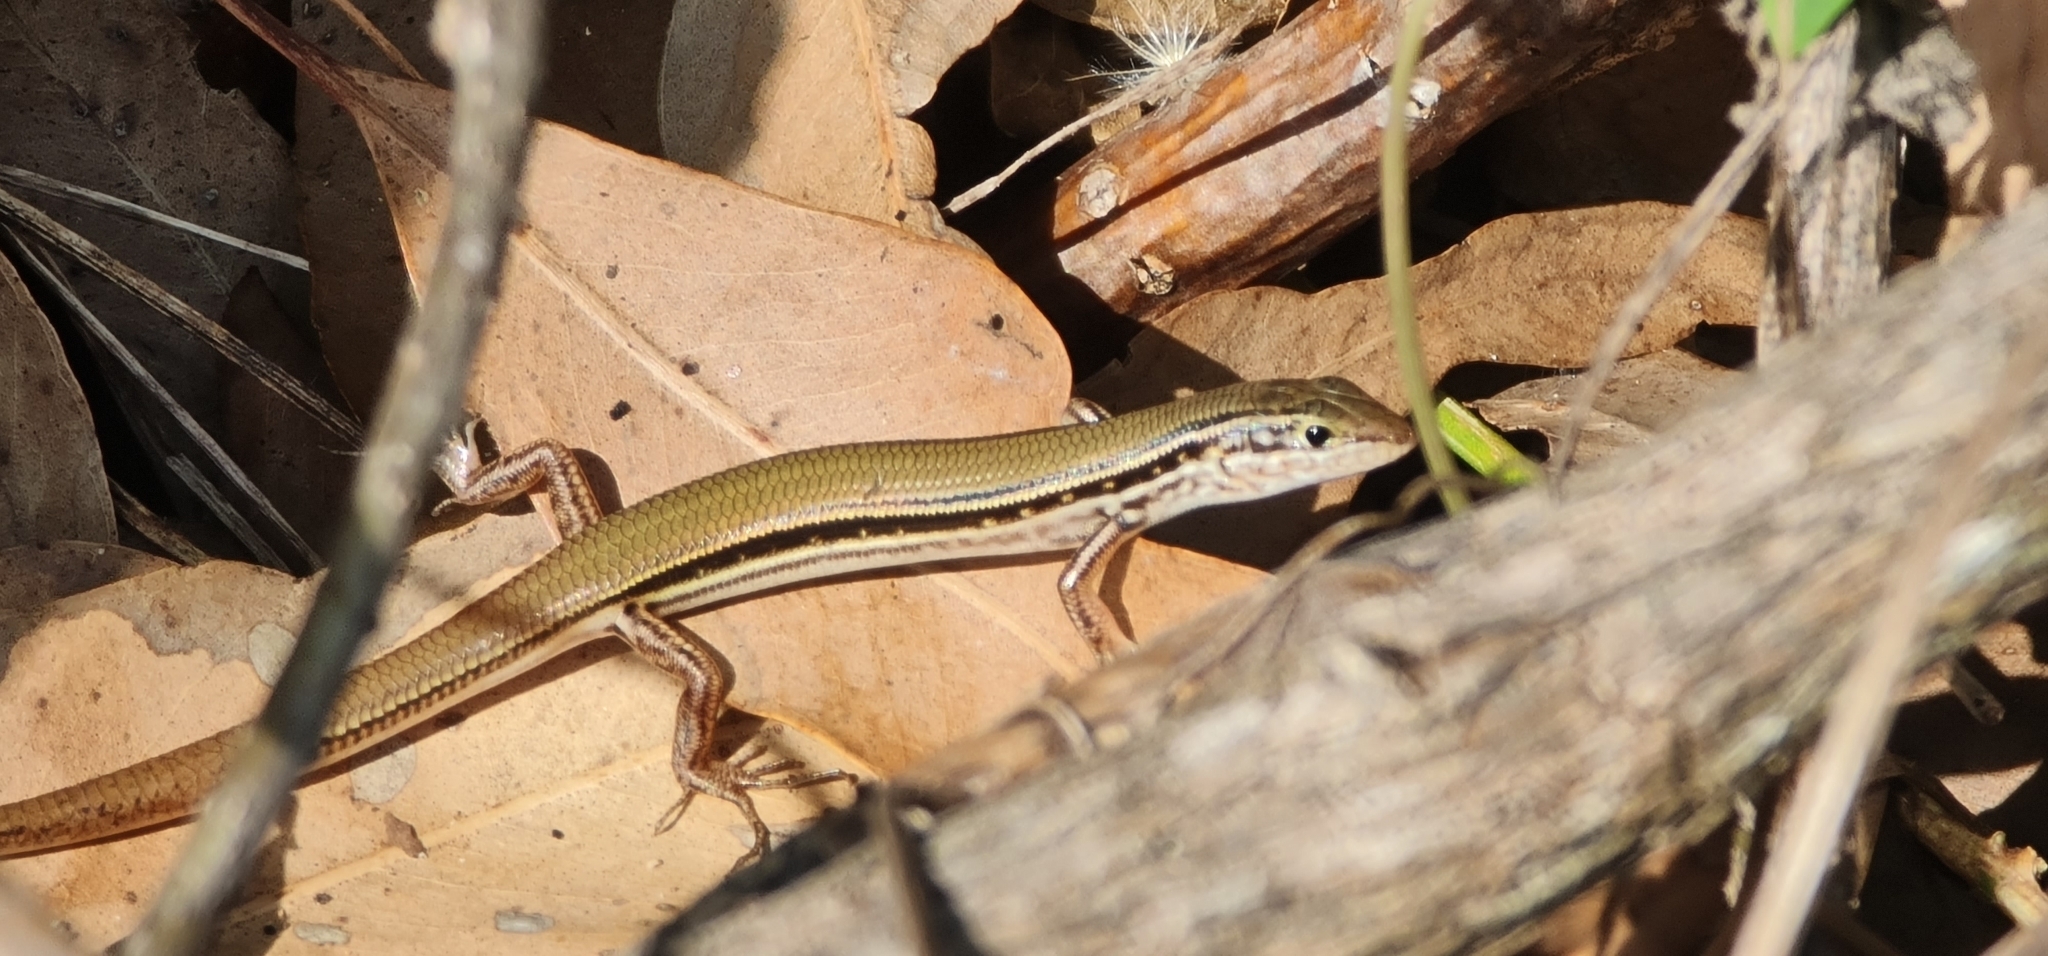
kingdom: Animalia
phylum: Chordata
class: Squamata
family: Scincidae
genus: Ctenotus
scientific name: Ctenotus essingtonii
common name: Lowlands plain-backed ctenotus
